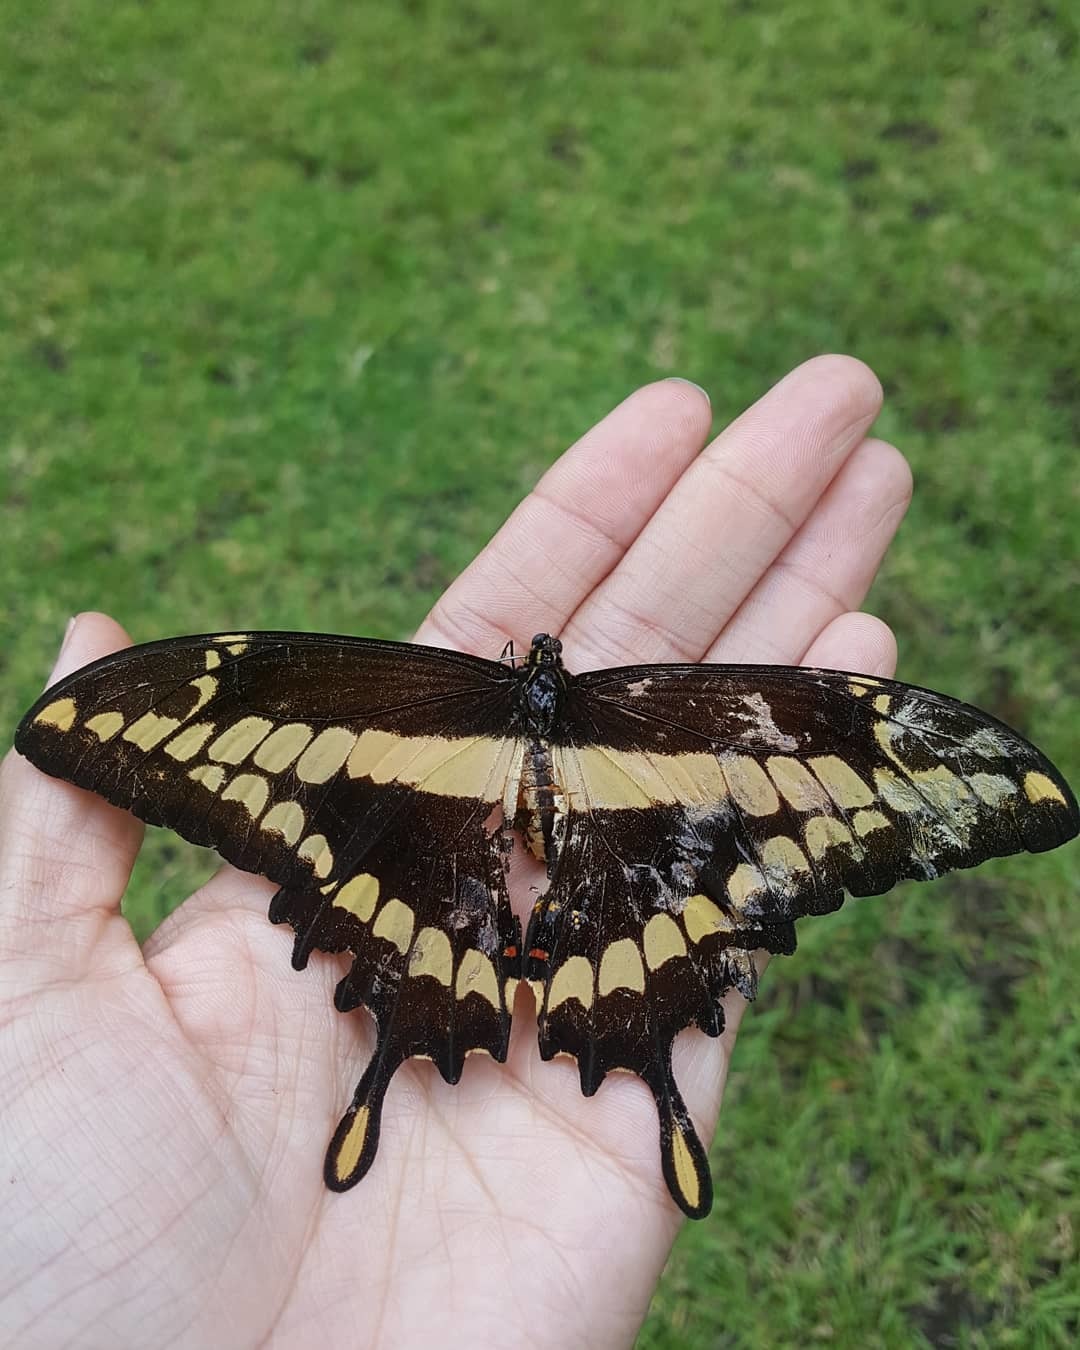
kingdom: Animalia
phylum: Arthropoda
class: Insecta
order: Lepidoptera
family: Papilionidae
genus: Papilio
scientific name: Papilio thoas
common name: King swallowtail
